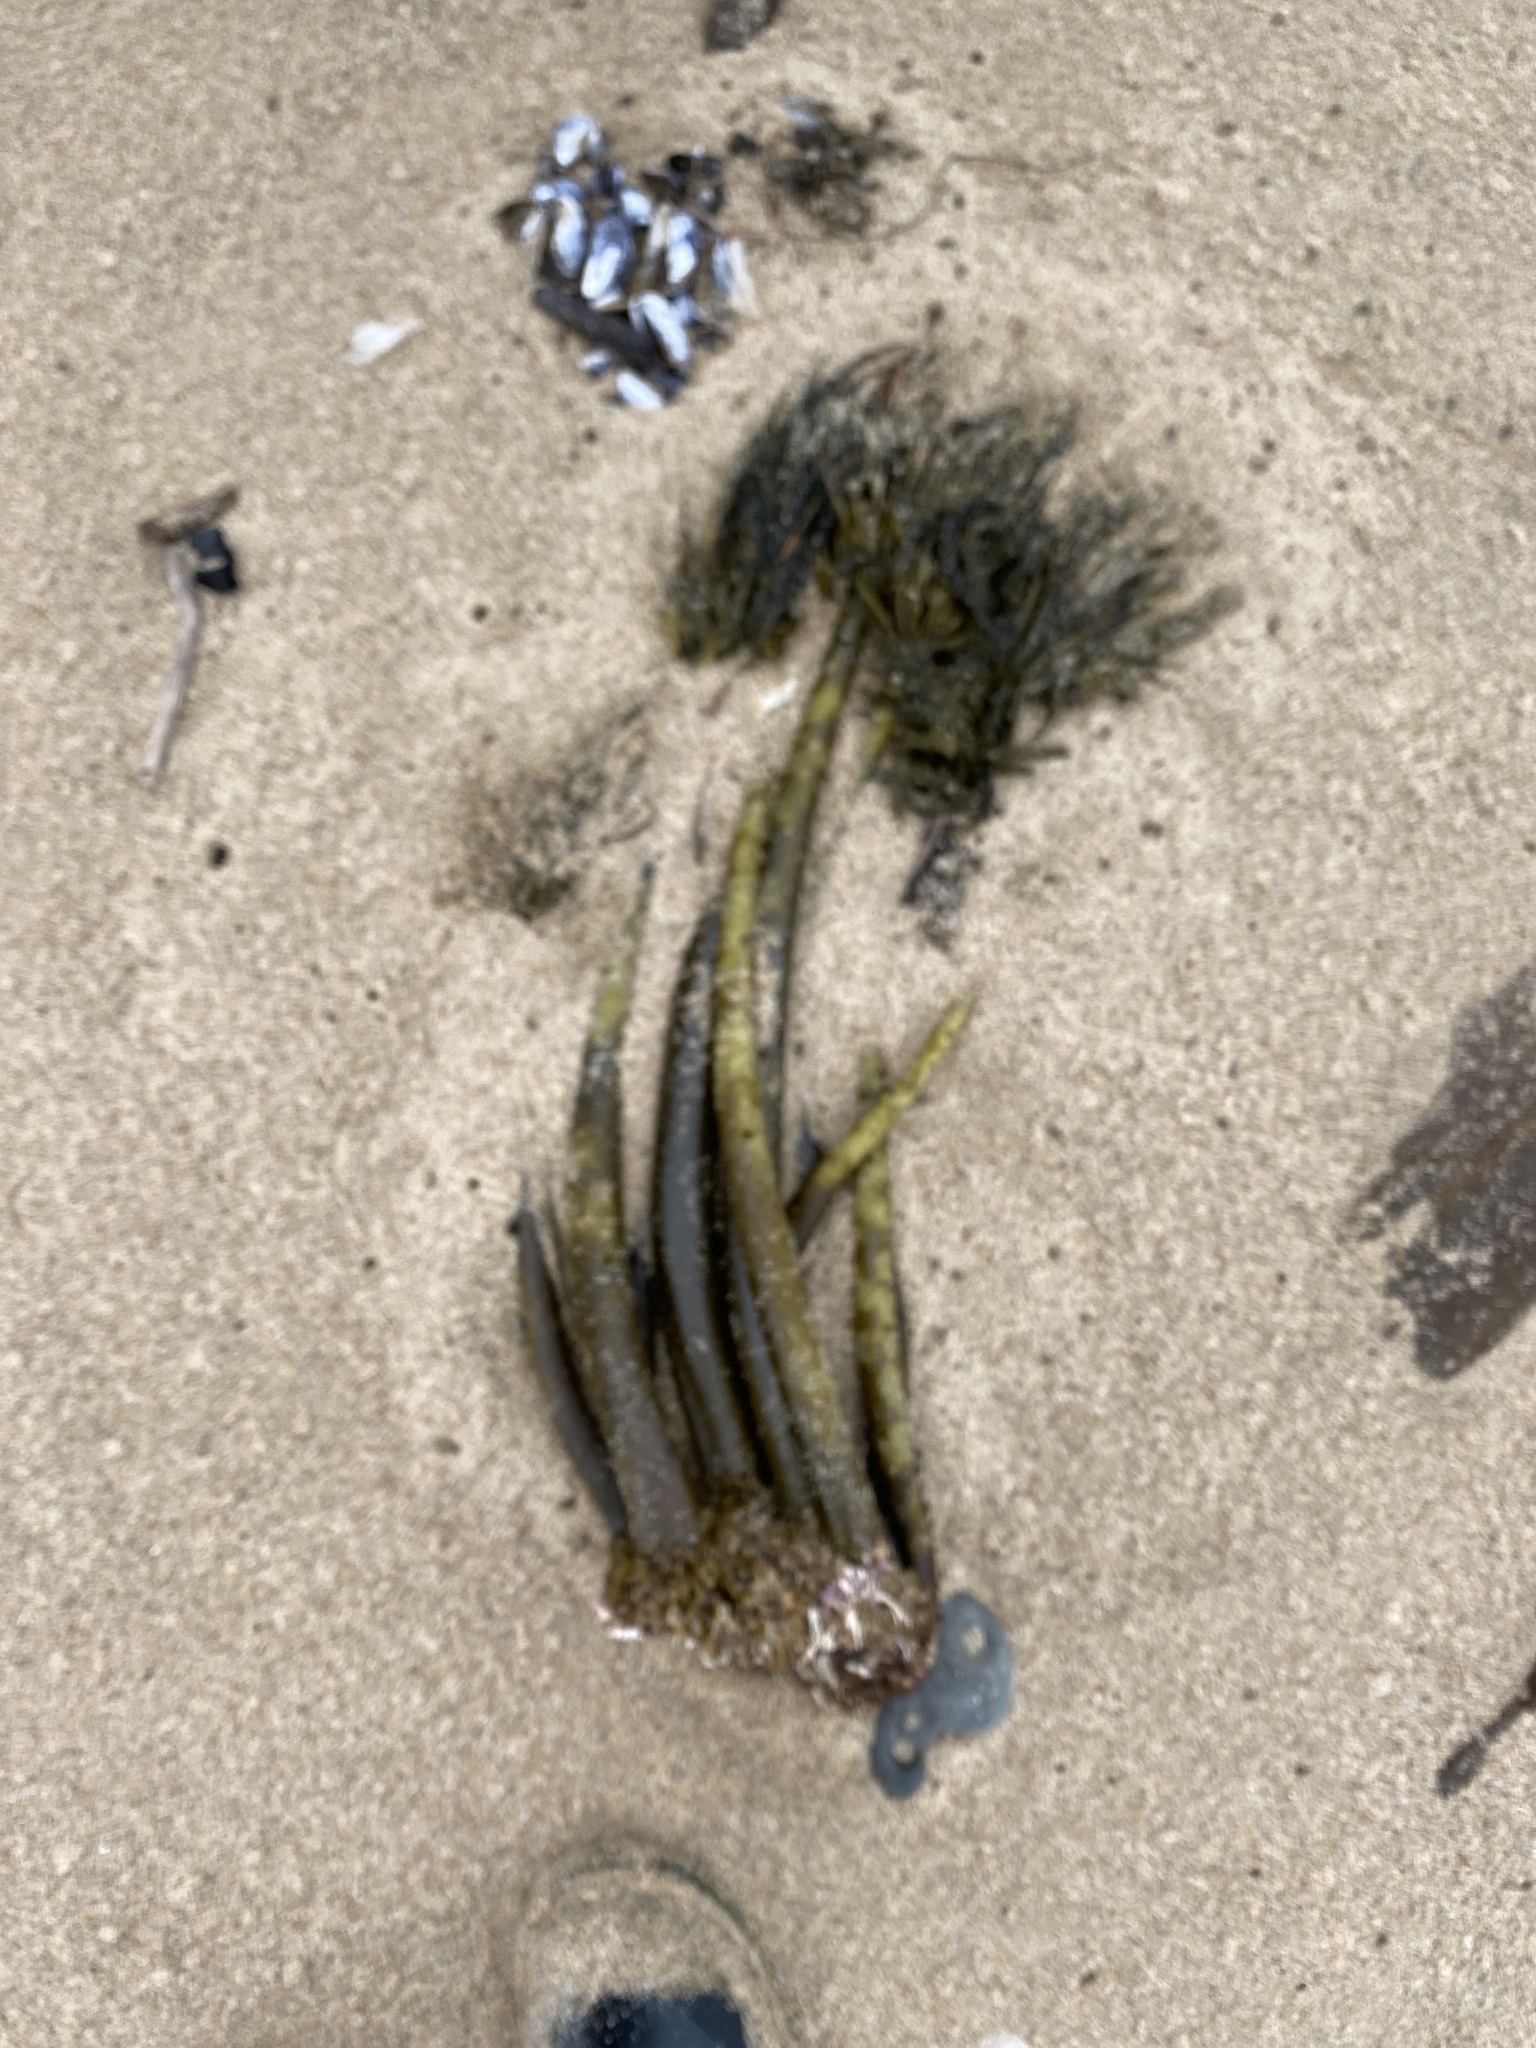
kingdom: Chromista
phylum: Ochrophyta
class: Phaeophyceae
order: Laminariales
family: Laminariaceae
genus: Postelsia
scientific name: Postelsia palmiformis
